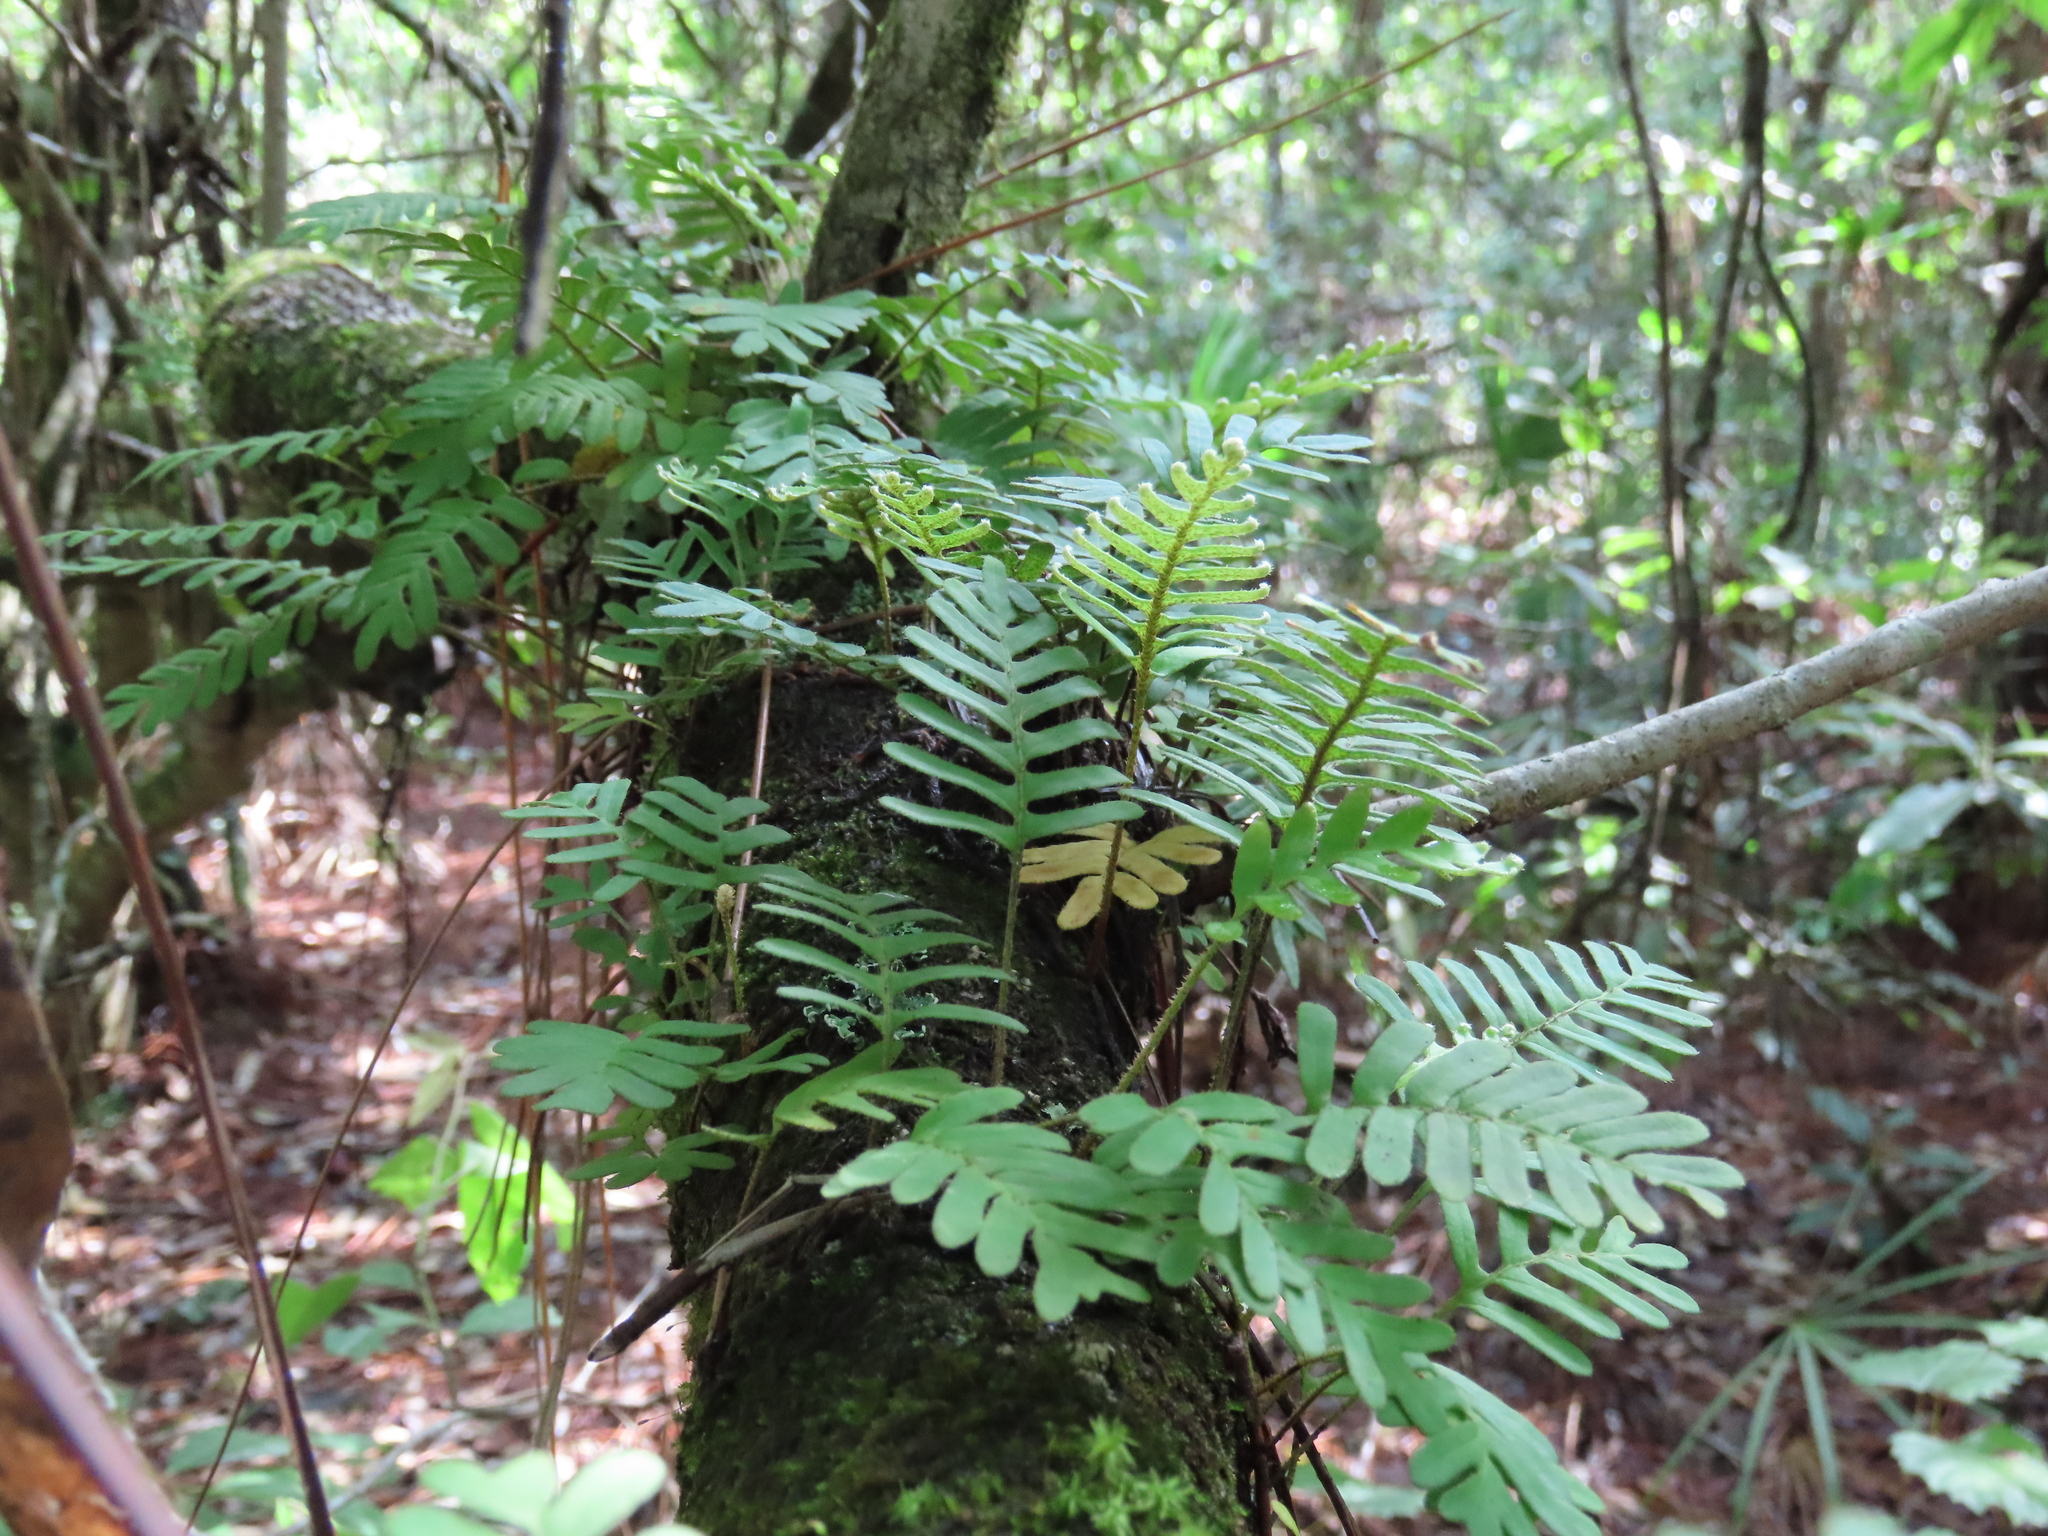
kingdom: Plantae
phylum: Tracheophyta
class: Polypodiopsida
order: Polypodiales
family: Polypodiaceae
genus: Pleopeltis
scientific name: Pleopeltis michauxiana
